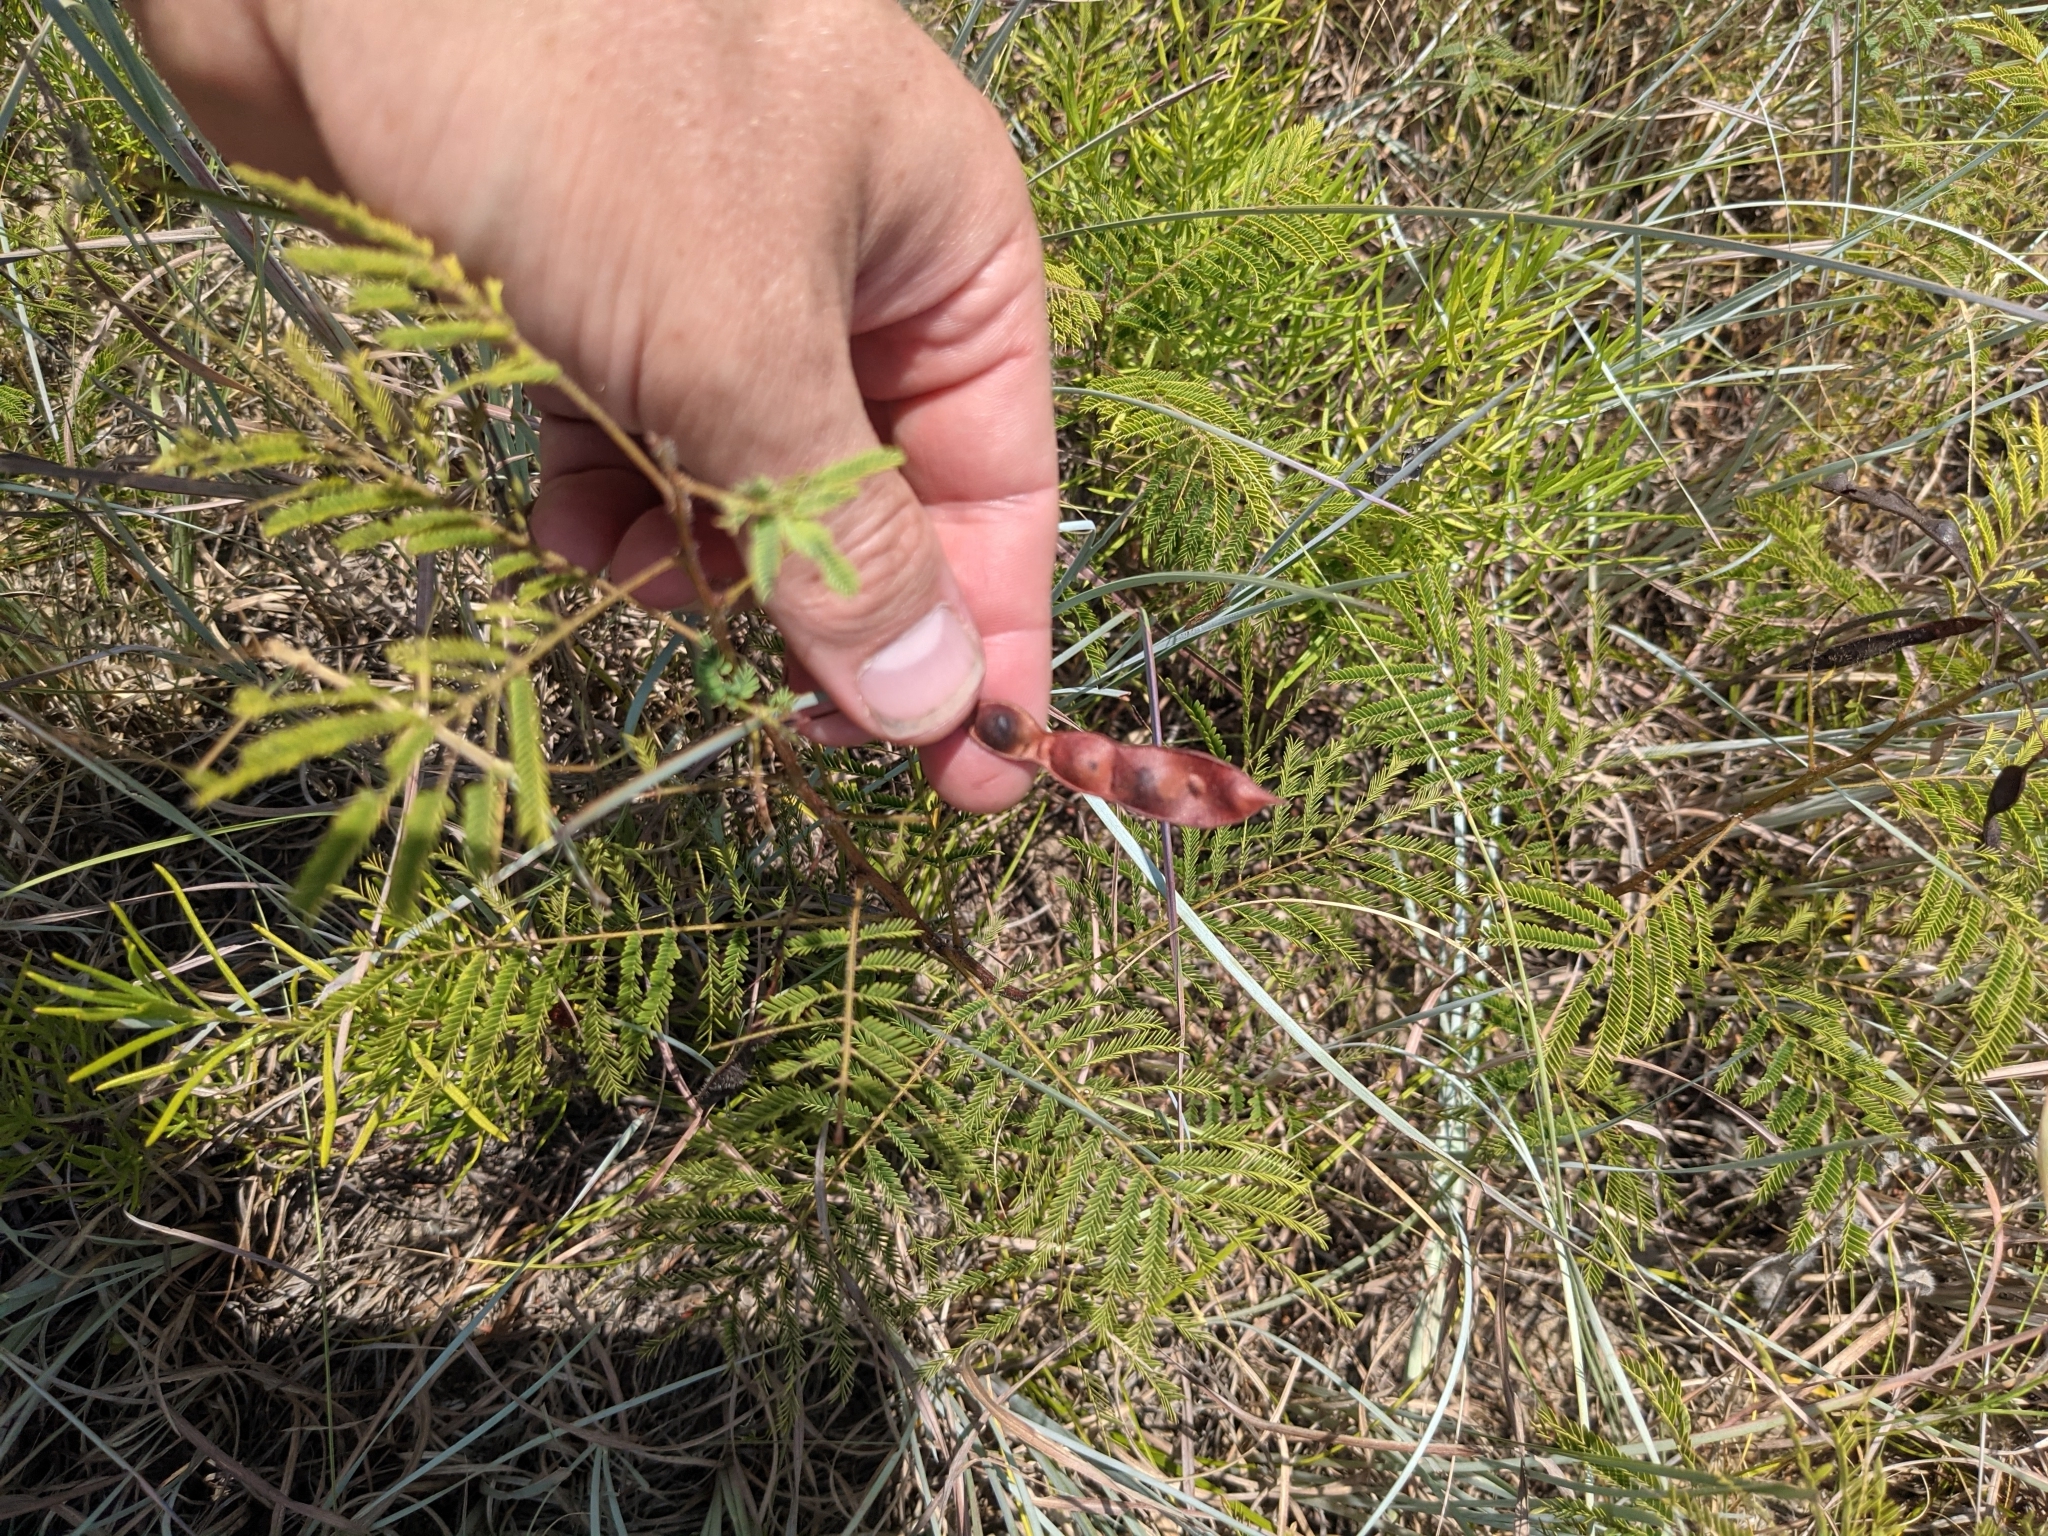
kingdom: Plantae
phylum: Tracheophyta
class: Magnoliopsida
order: Fabales
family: Fabaceae
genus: Acaciella
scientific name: Acaciella angustissima
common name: Prairie acacia
